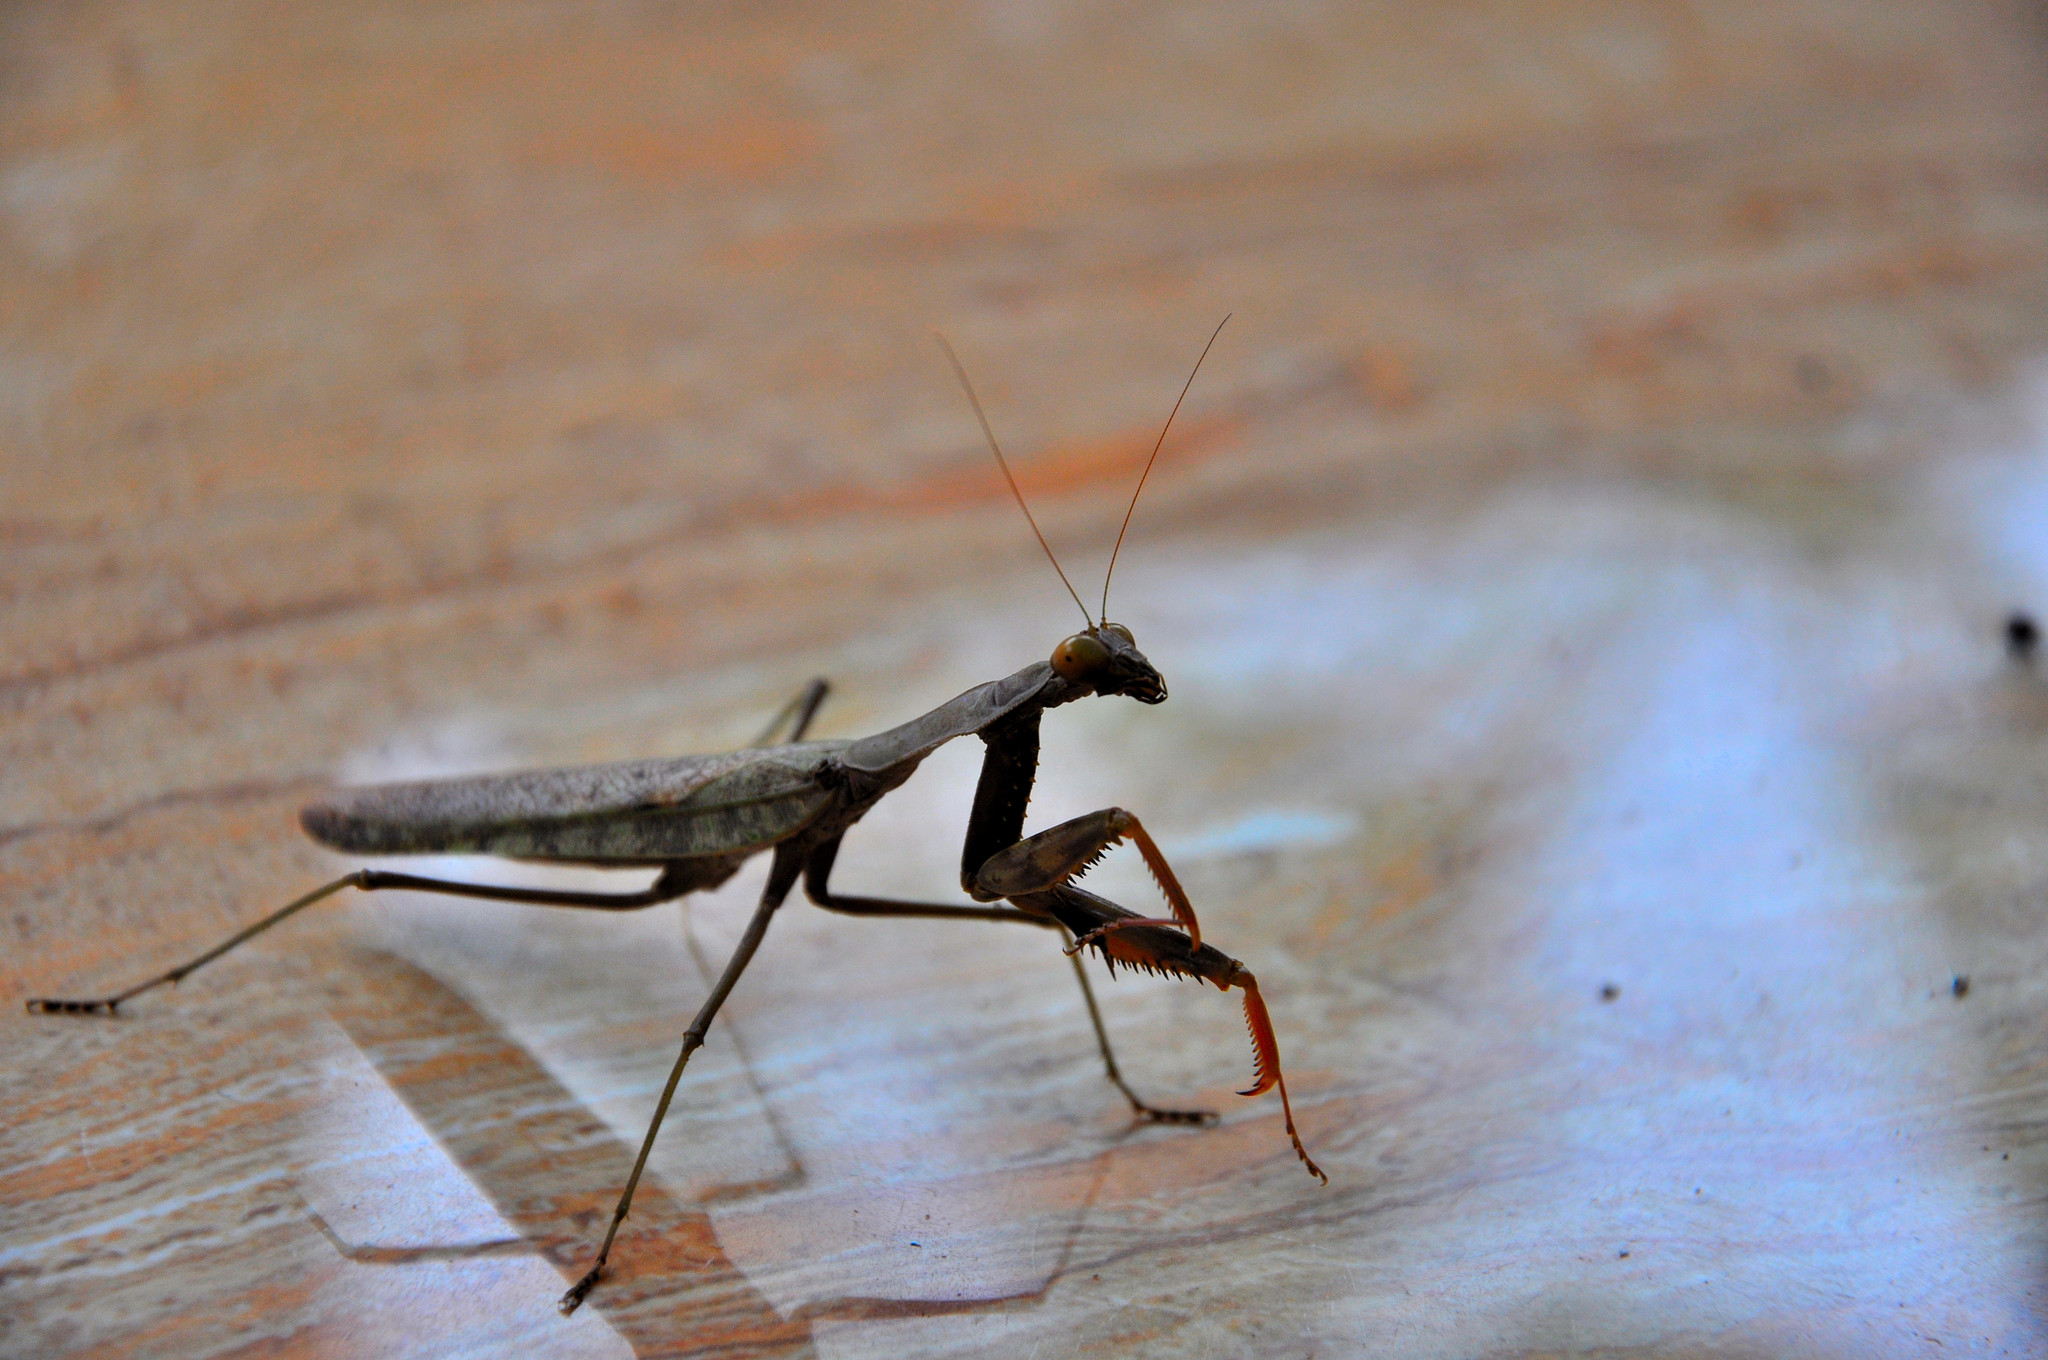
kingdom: Animalia
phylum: Arthropoda
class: Insecta
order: Mantodea
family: Mantidae
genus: Polyspilota
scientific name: Polyspilota aeruginosa
